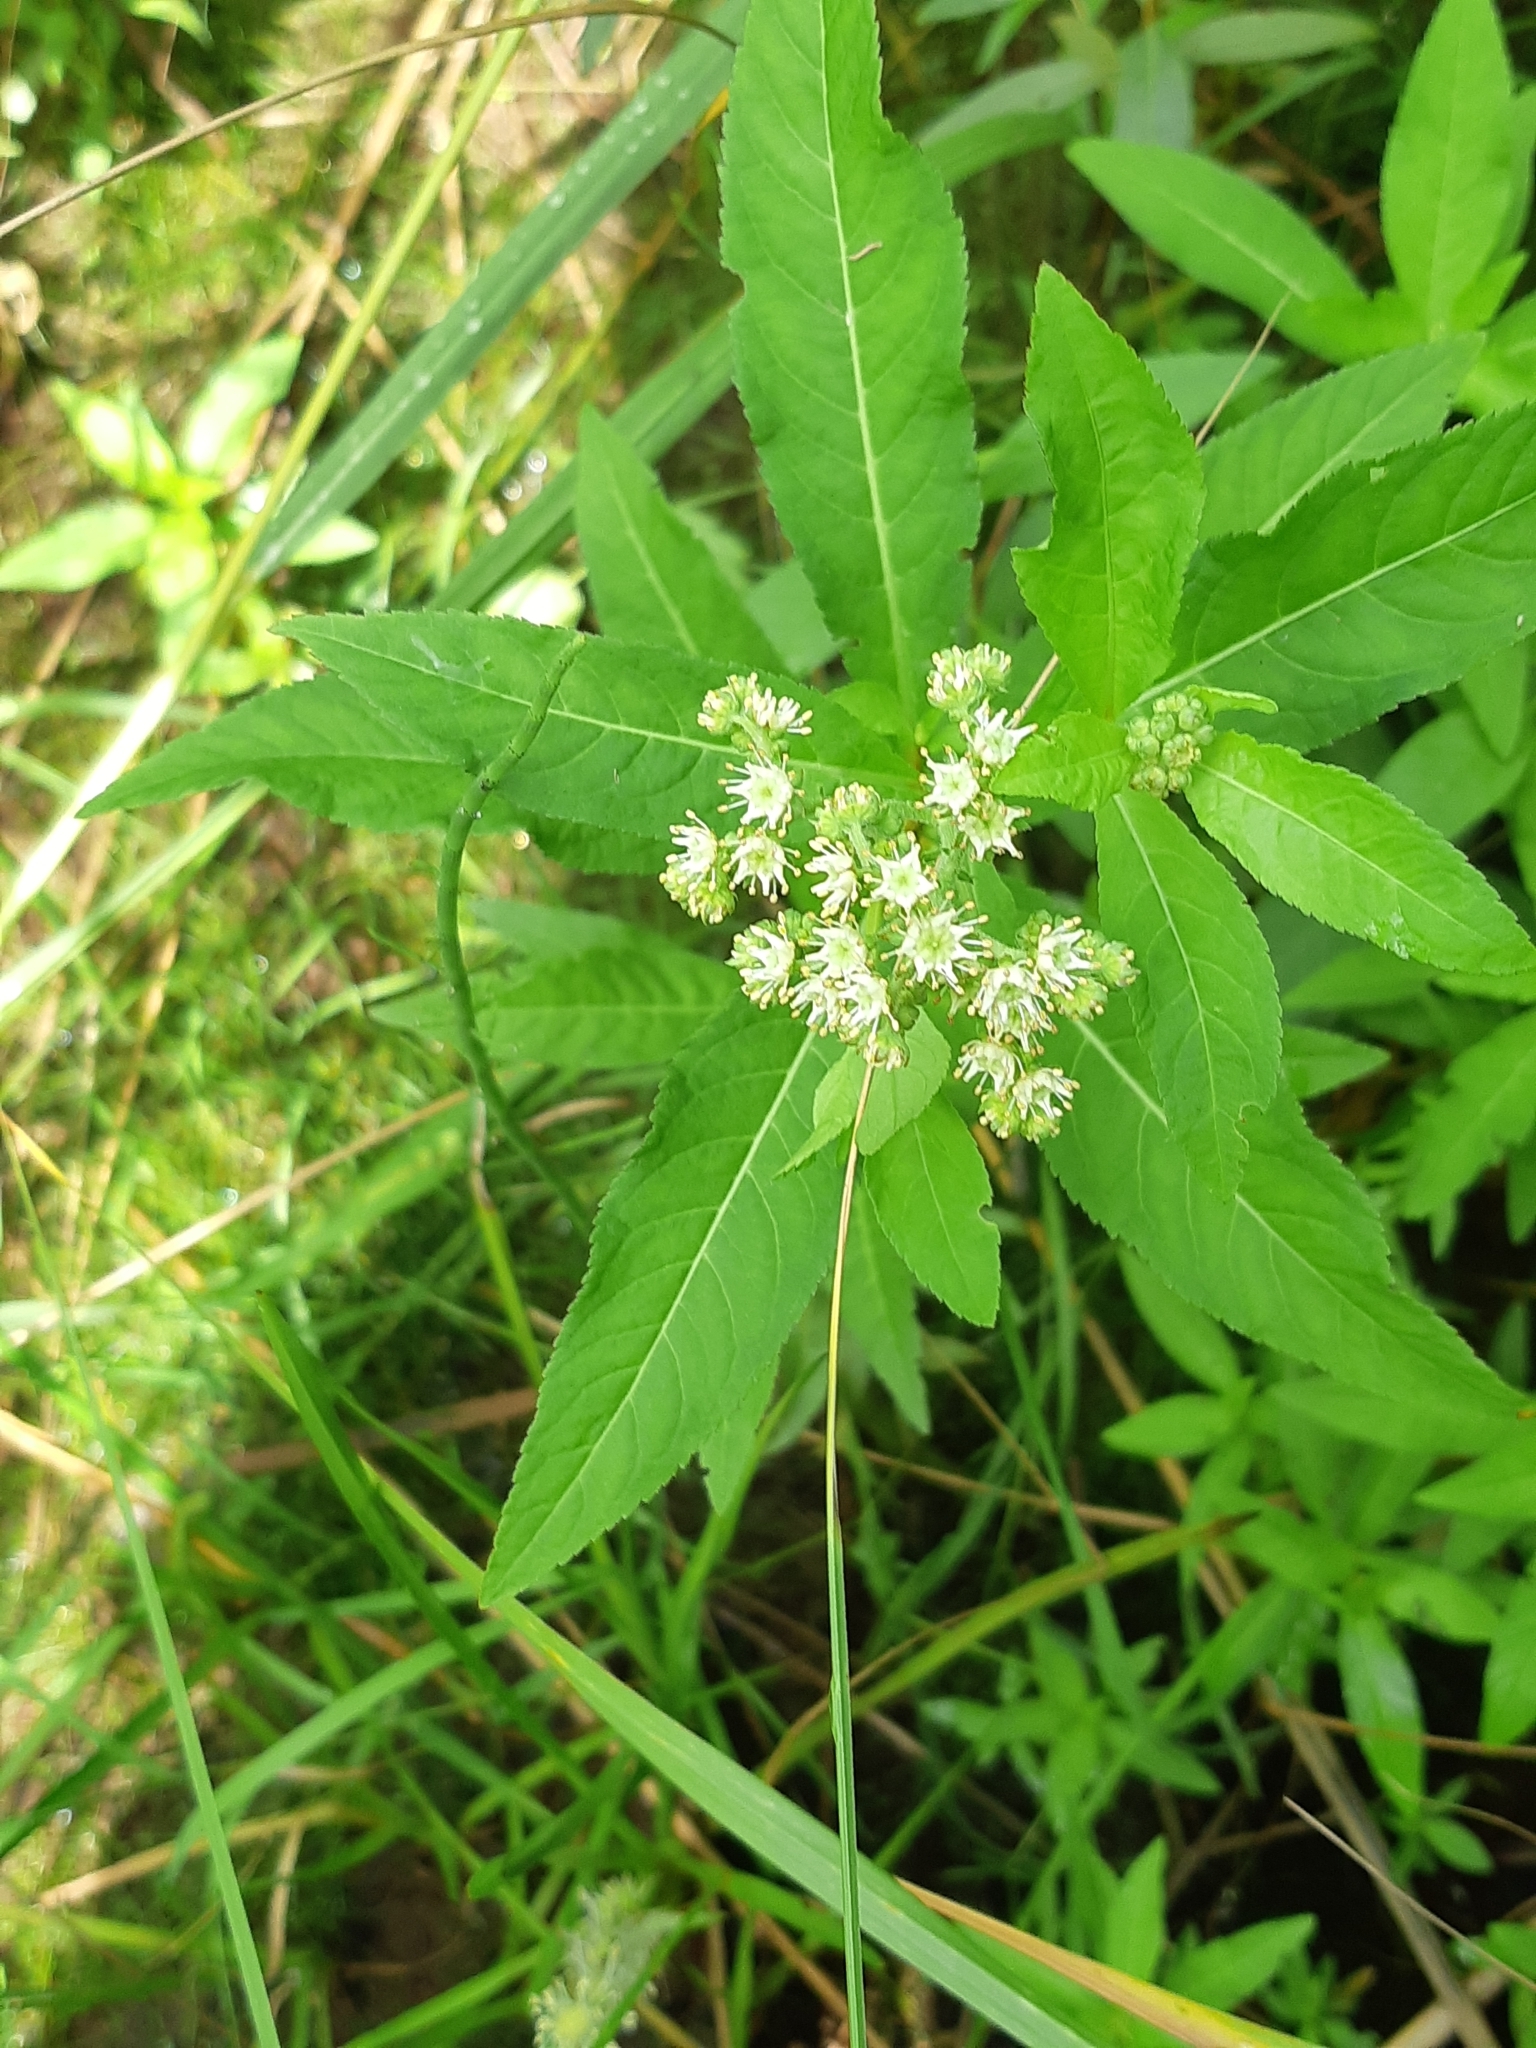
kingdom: Plantae
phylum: Tracheophyta
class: Magnoliopsida
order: Saxifragales
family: Penthoraceae
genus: Penthorum
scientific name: Penthorum sedoides
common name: Ditch stonecrop
